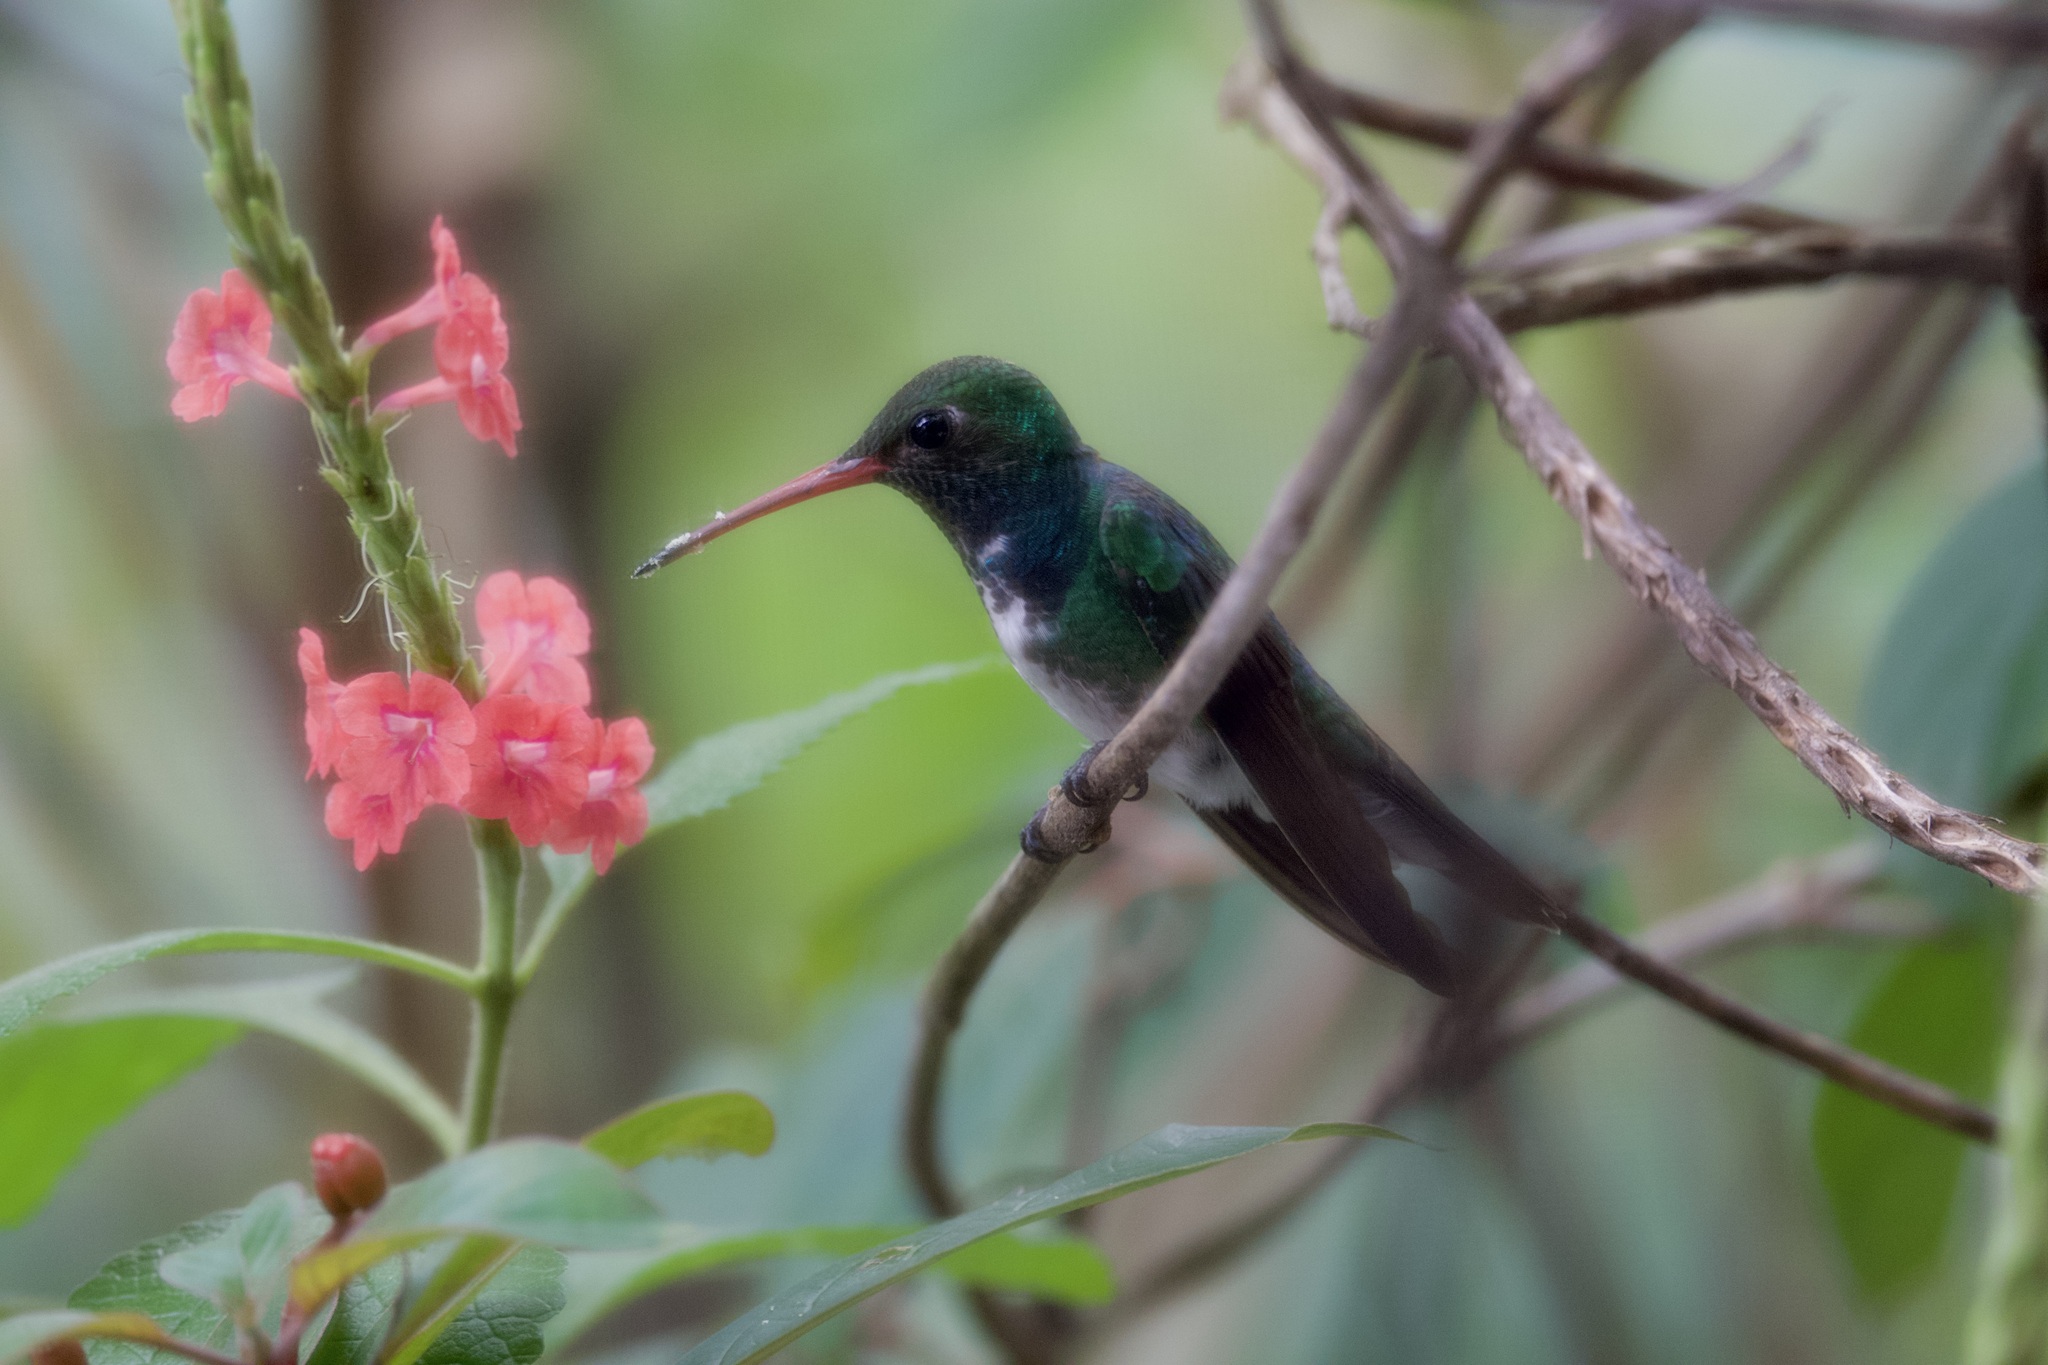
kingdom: Animalia
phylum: Chordata
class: Aves
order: Apodiformes
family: Trochilidae
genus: Chionomesa
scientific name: Chionomesa fimbriata
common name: Glittering-throated emerald
